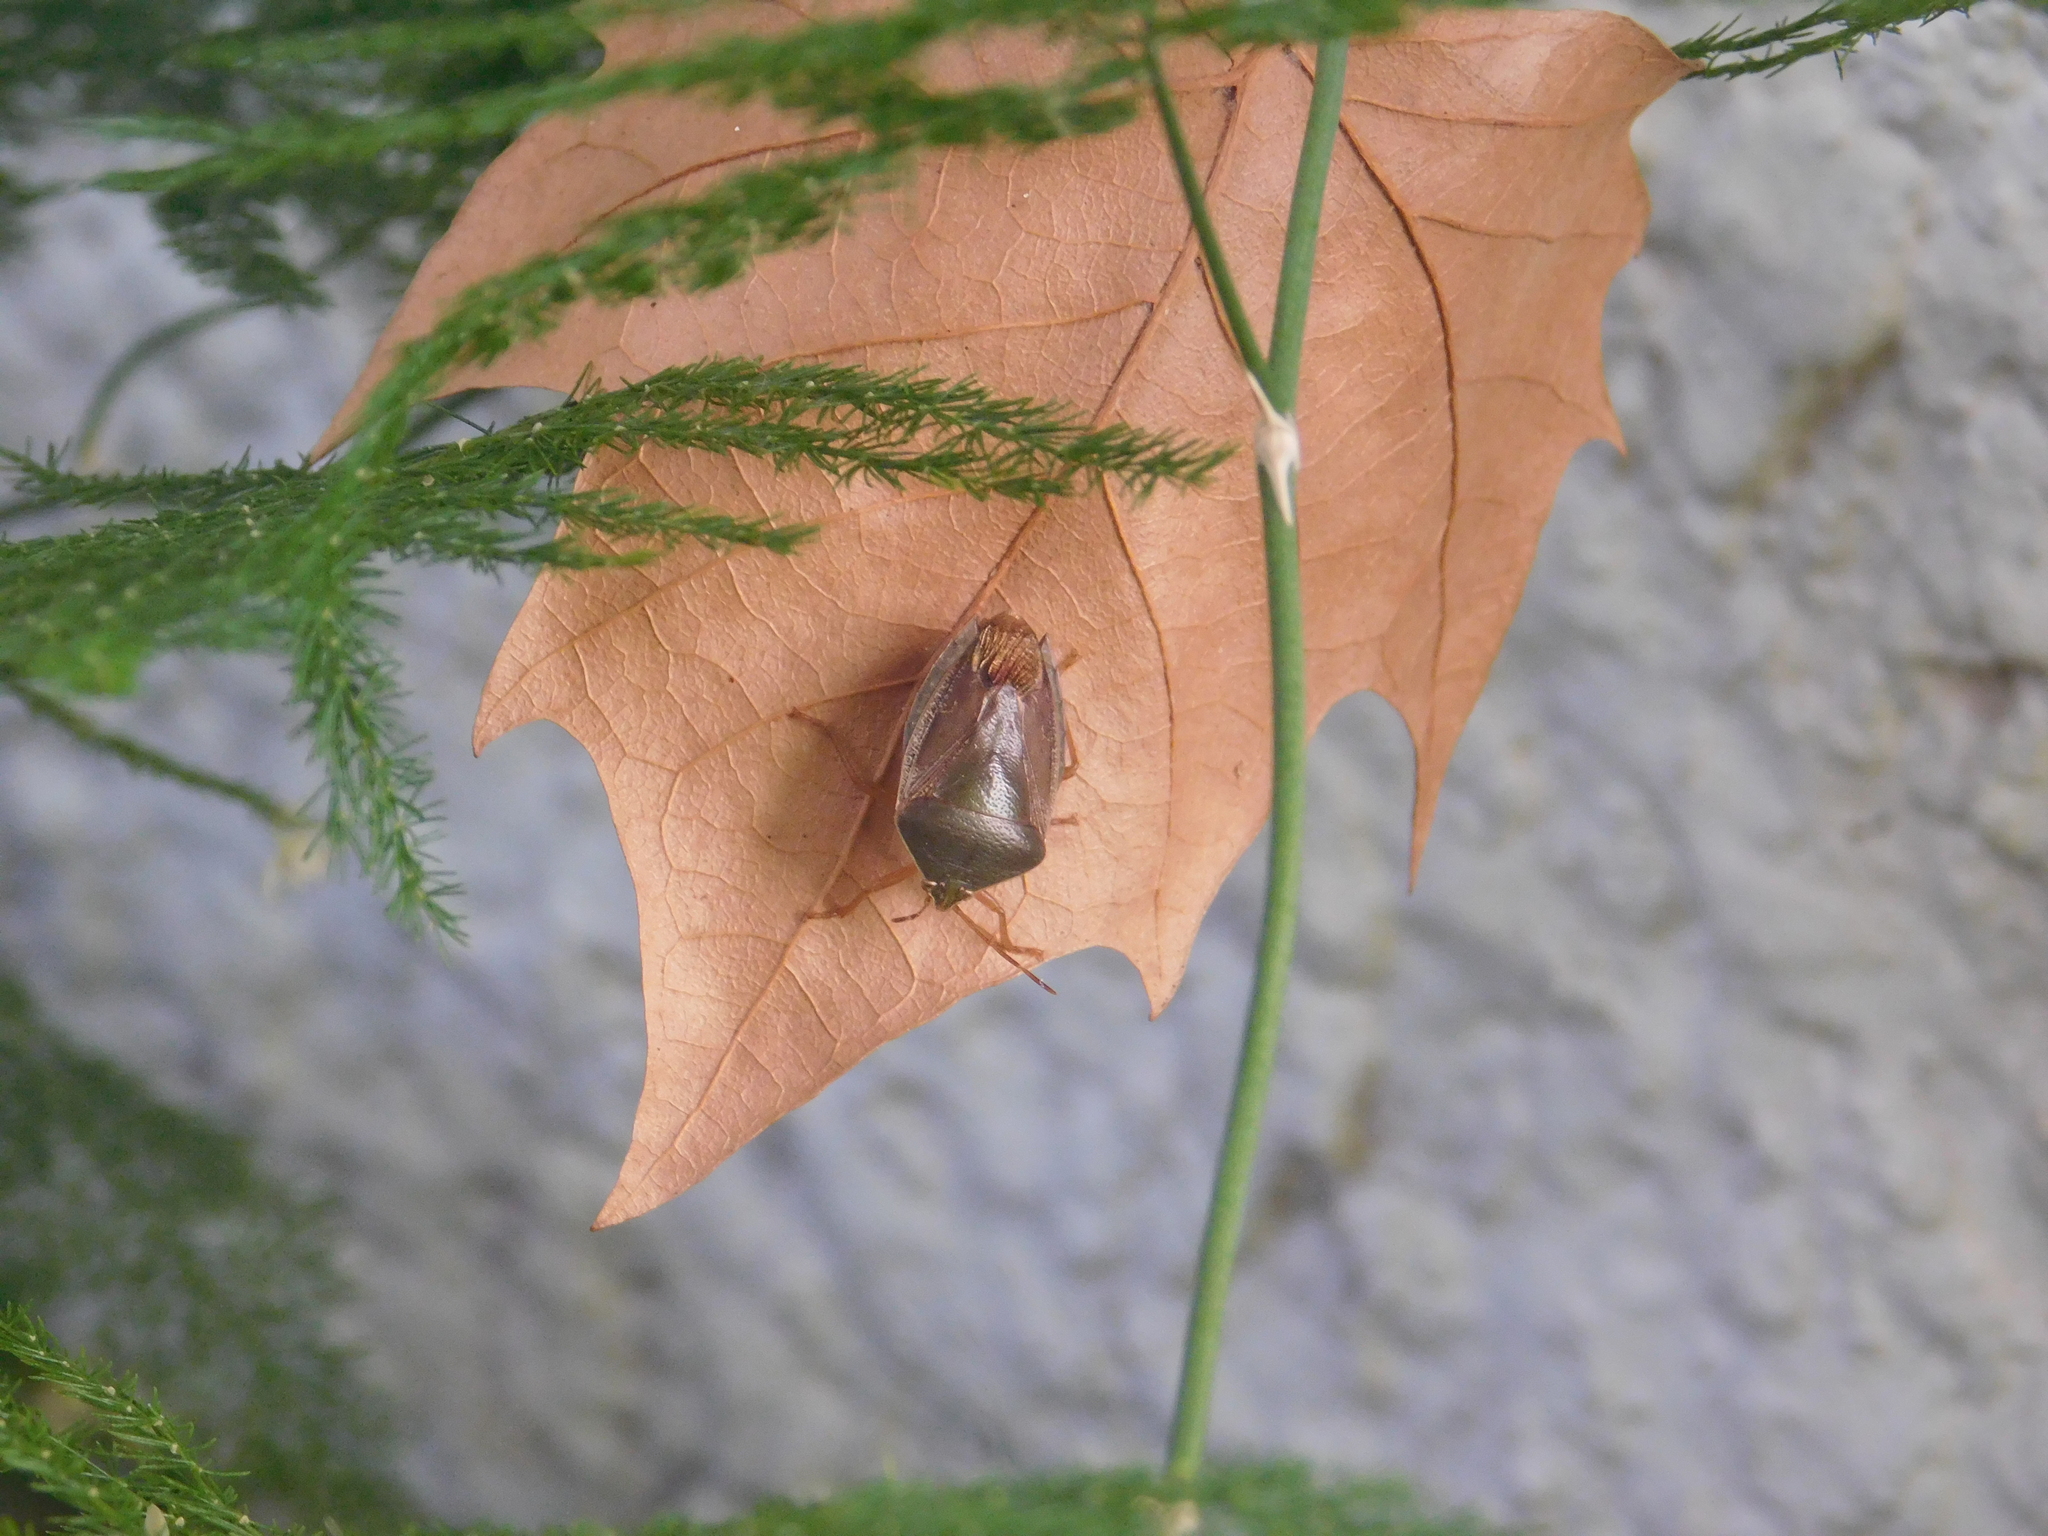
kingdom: Animalia
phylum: Arthropoda
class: Insecta
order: Hemiptera
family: Pentatomidae
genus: Edessa
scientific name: Edessa meditabunda
